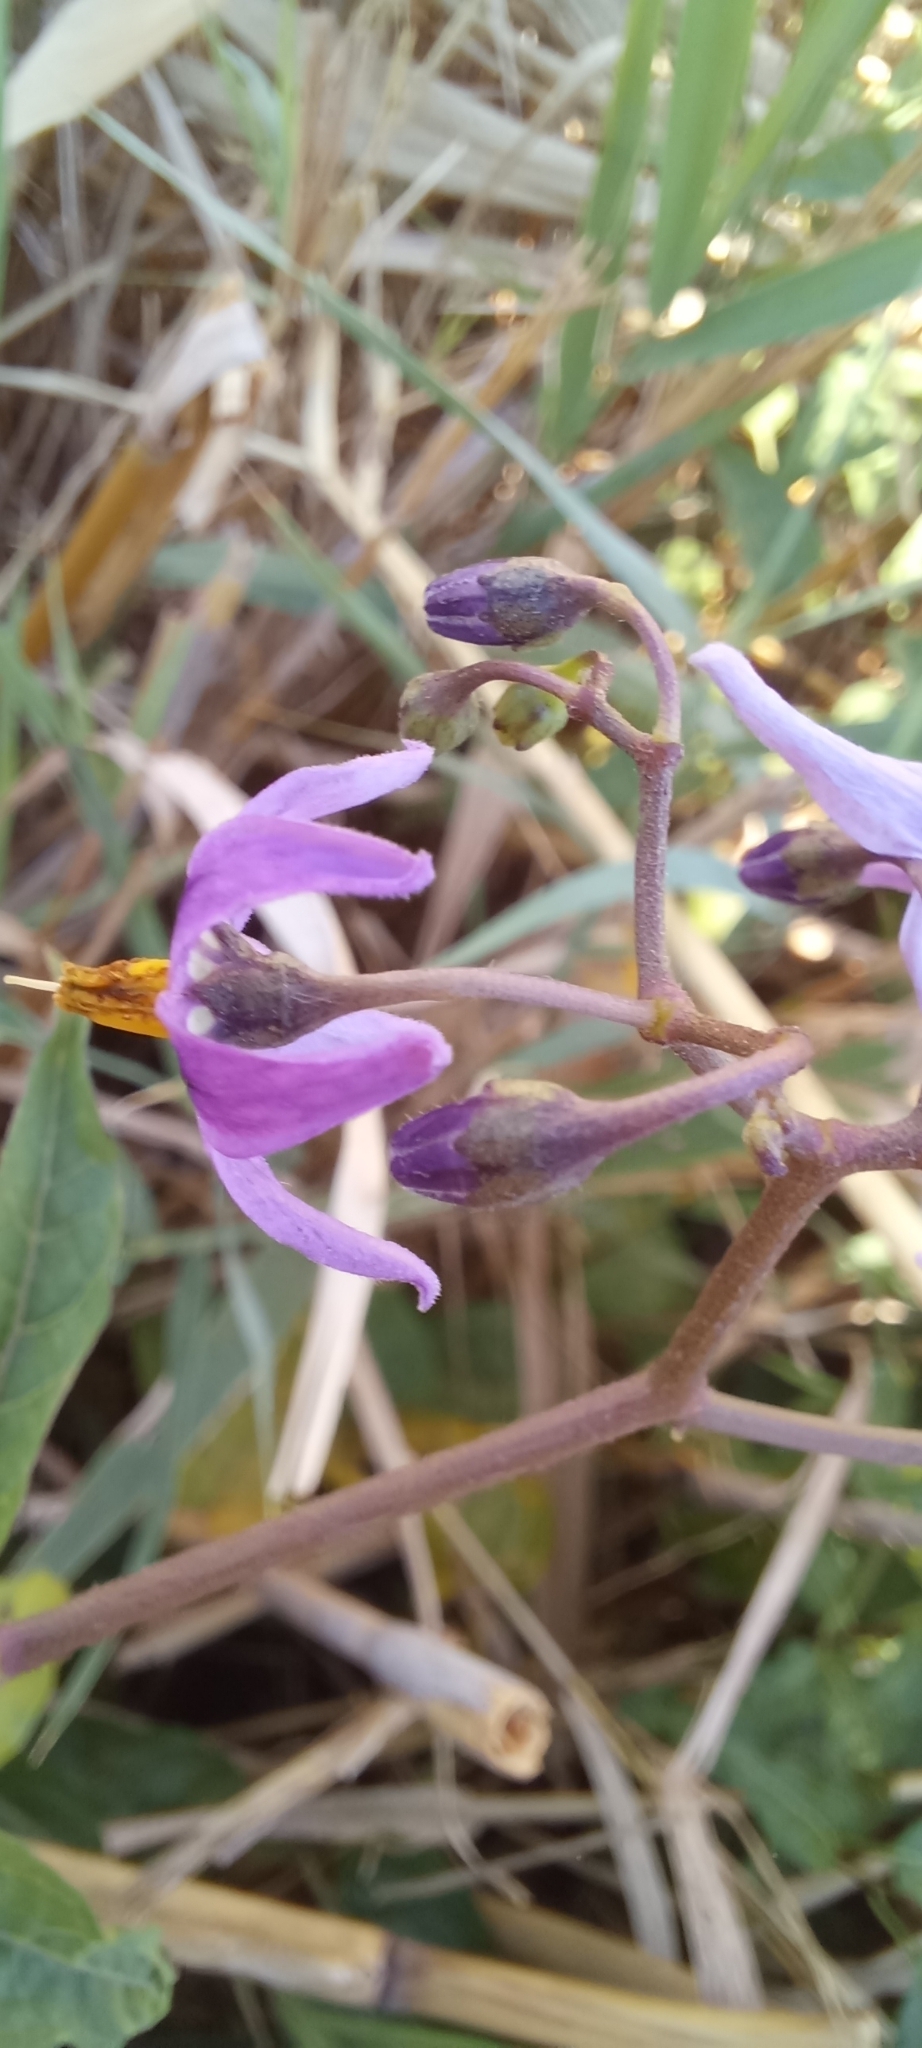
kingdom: Plantae
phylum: Tracheophyta
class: Magnoliopsida
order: Solanales
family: Solanaceae
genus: Solanum
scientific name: Solanum dulcamara
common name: Climbing nightshade
